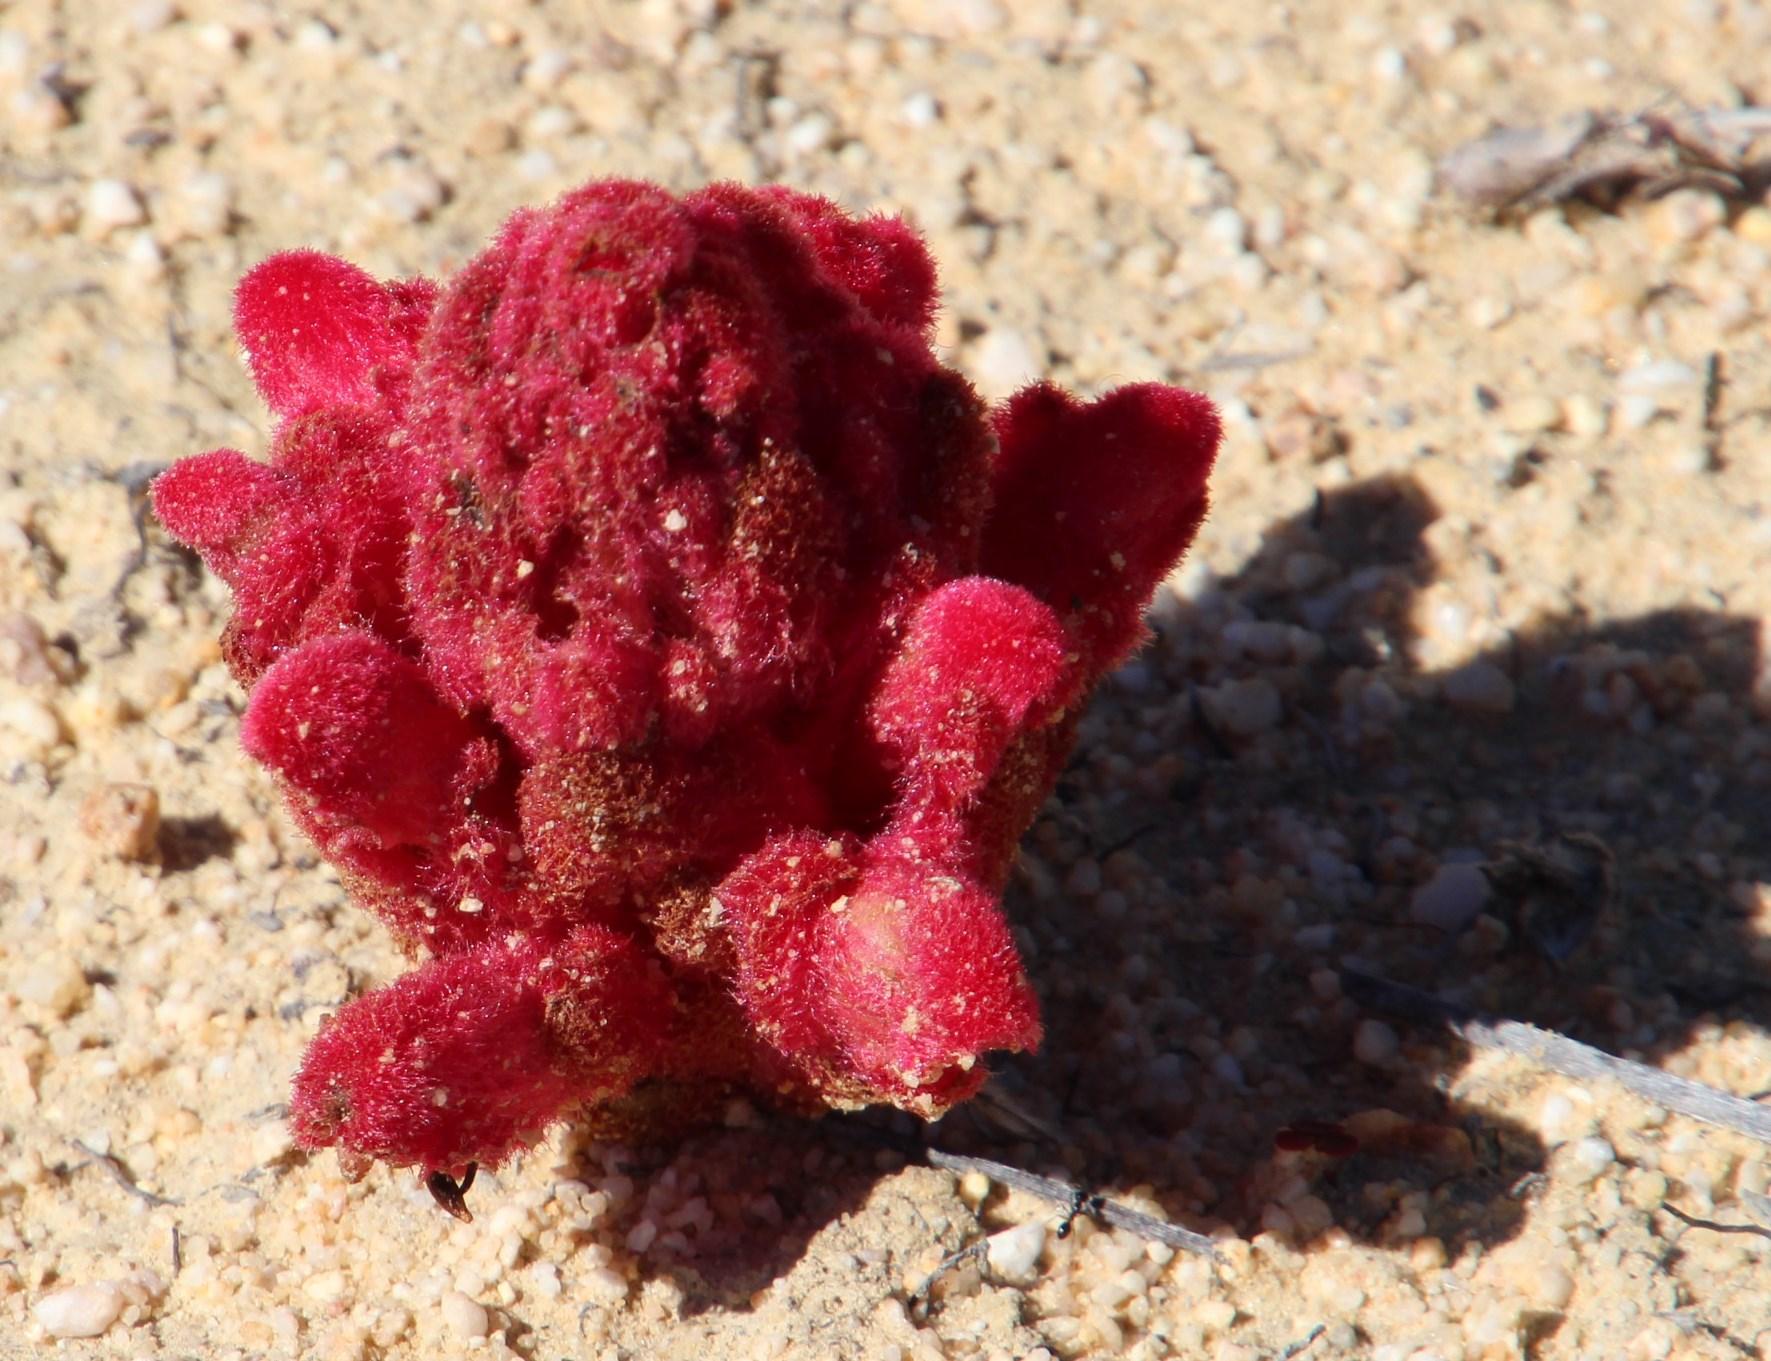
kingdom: Plantae
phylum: Tracheophyta
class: Magnoliopsida
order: Lamiales
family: Orobanchaceae
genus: Hyobanche
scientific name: Hyobanche sanguinea
